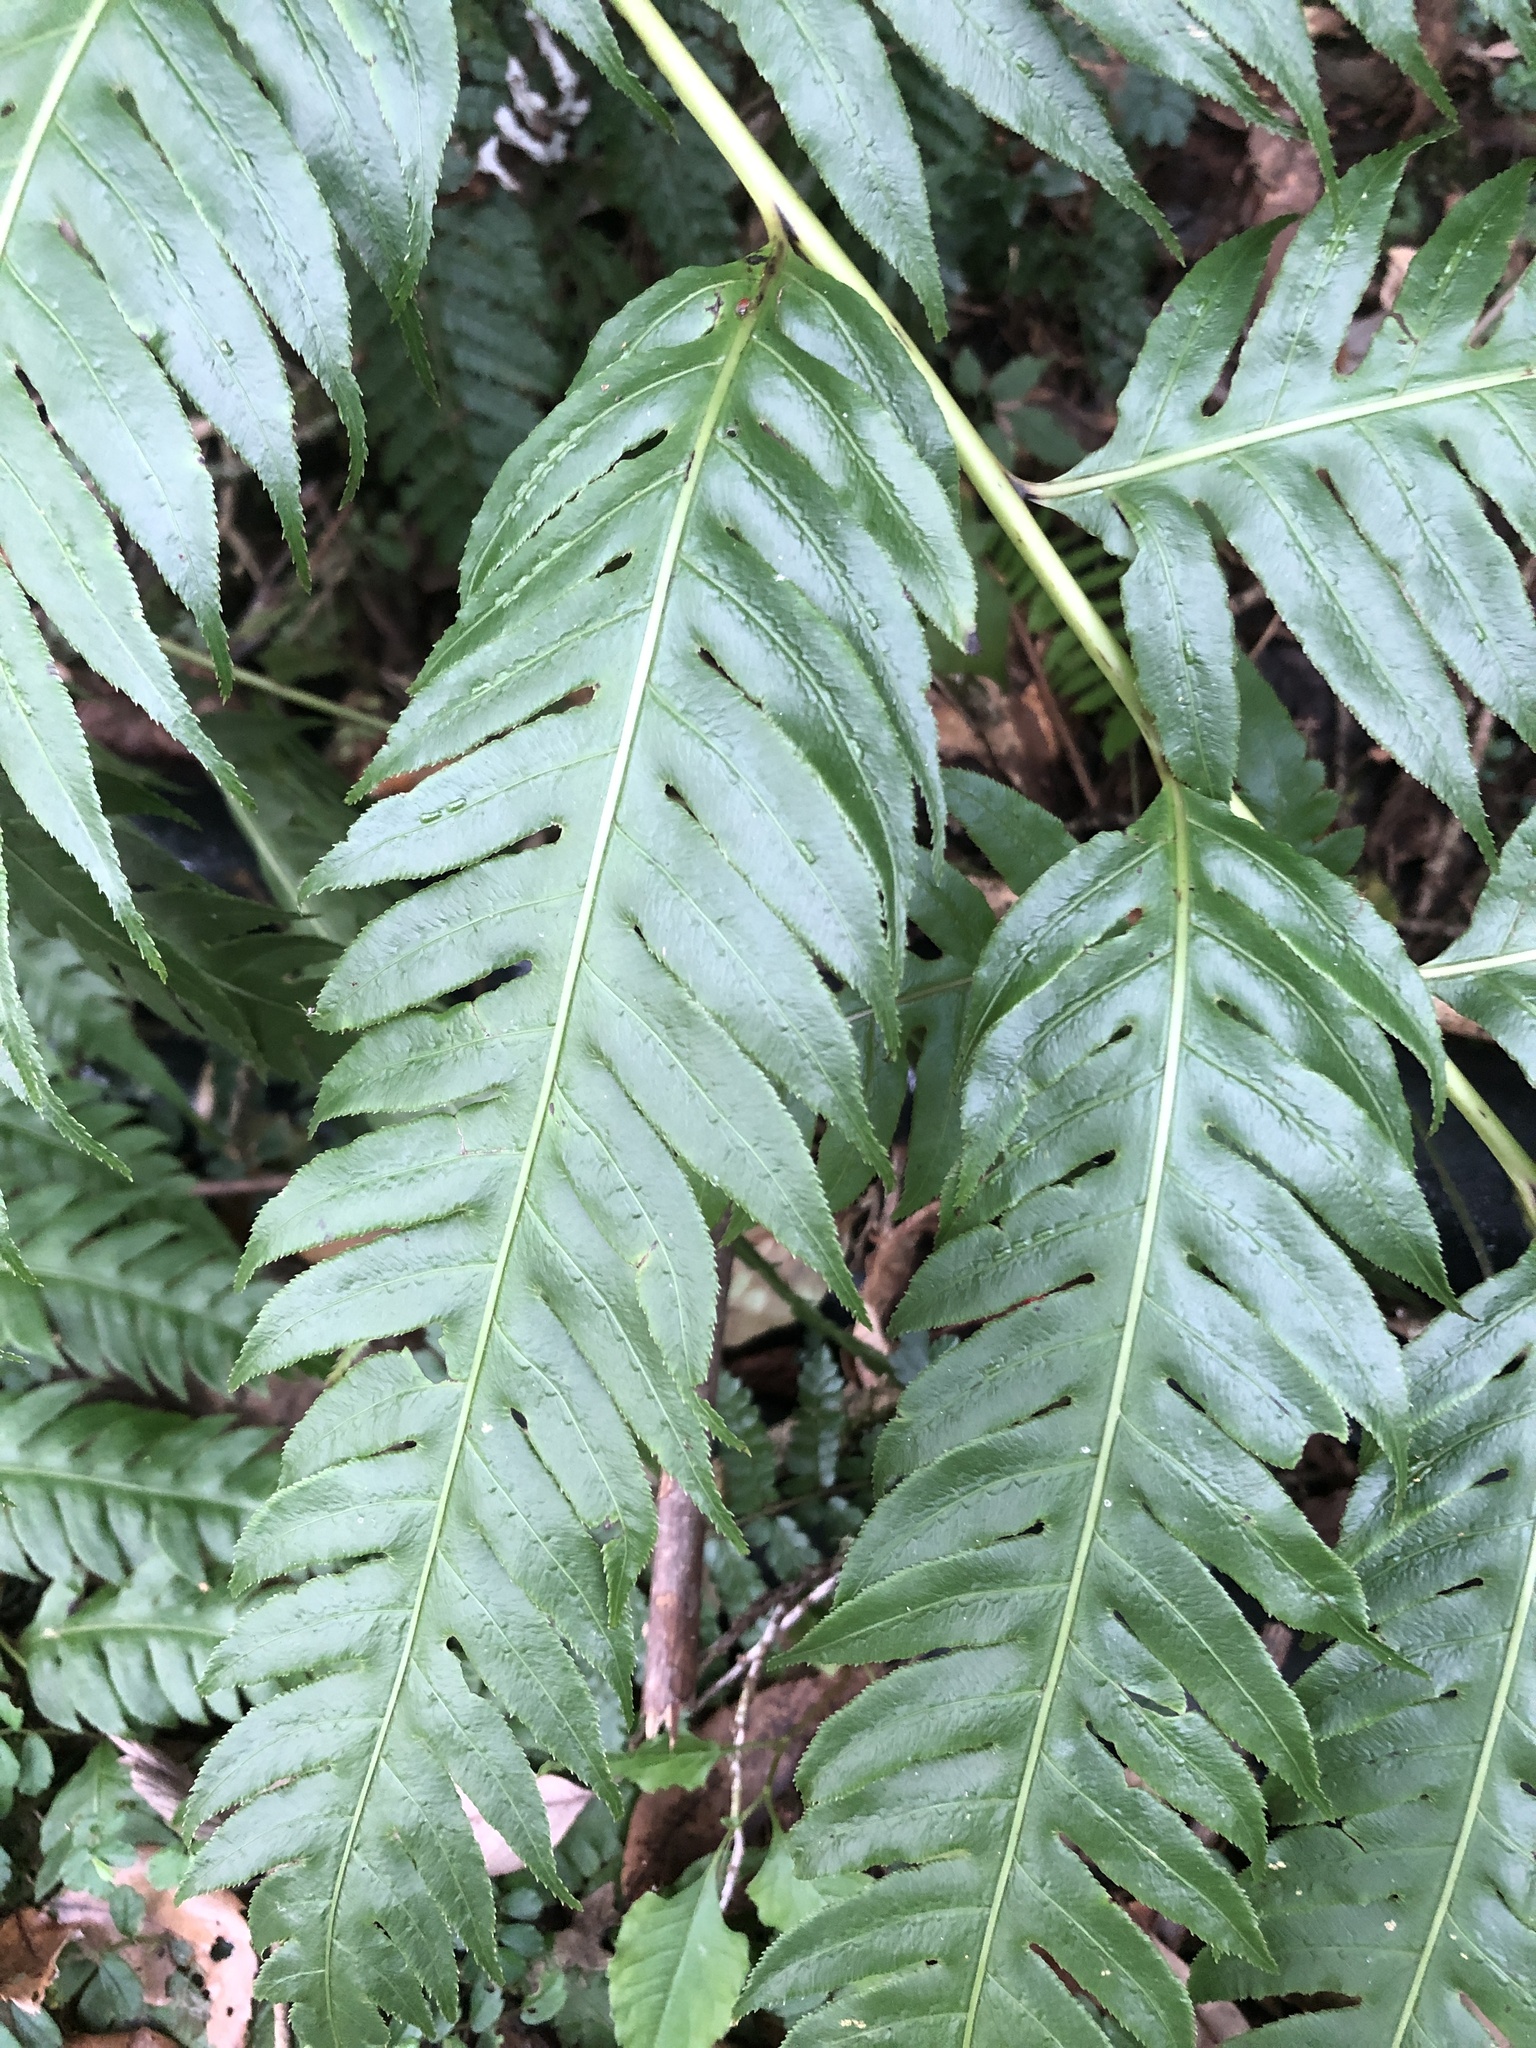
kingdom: Plantae
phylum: Tracheophyta
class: Polypodiopsida
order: Polypodiales
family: Blechnaceae
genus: Woodwardia
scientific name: Woodwardia unigemmata
